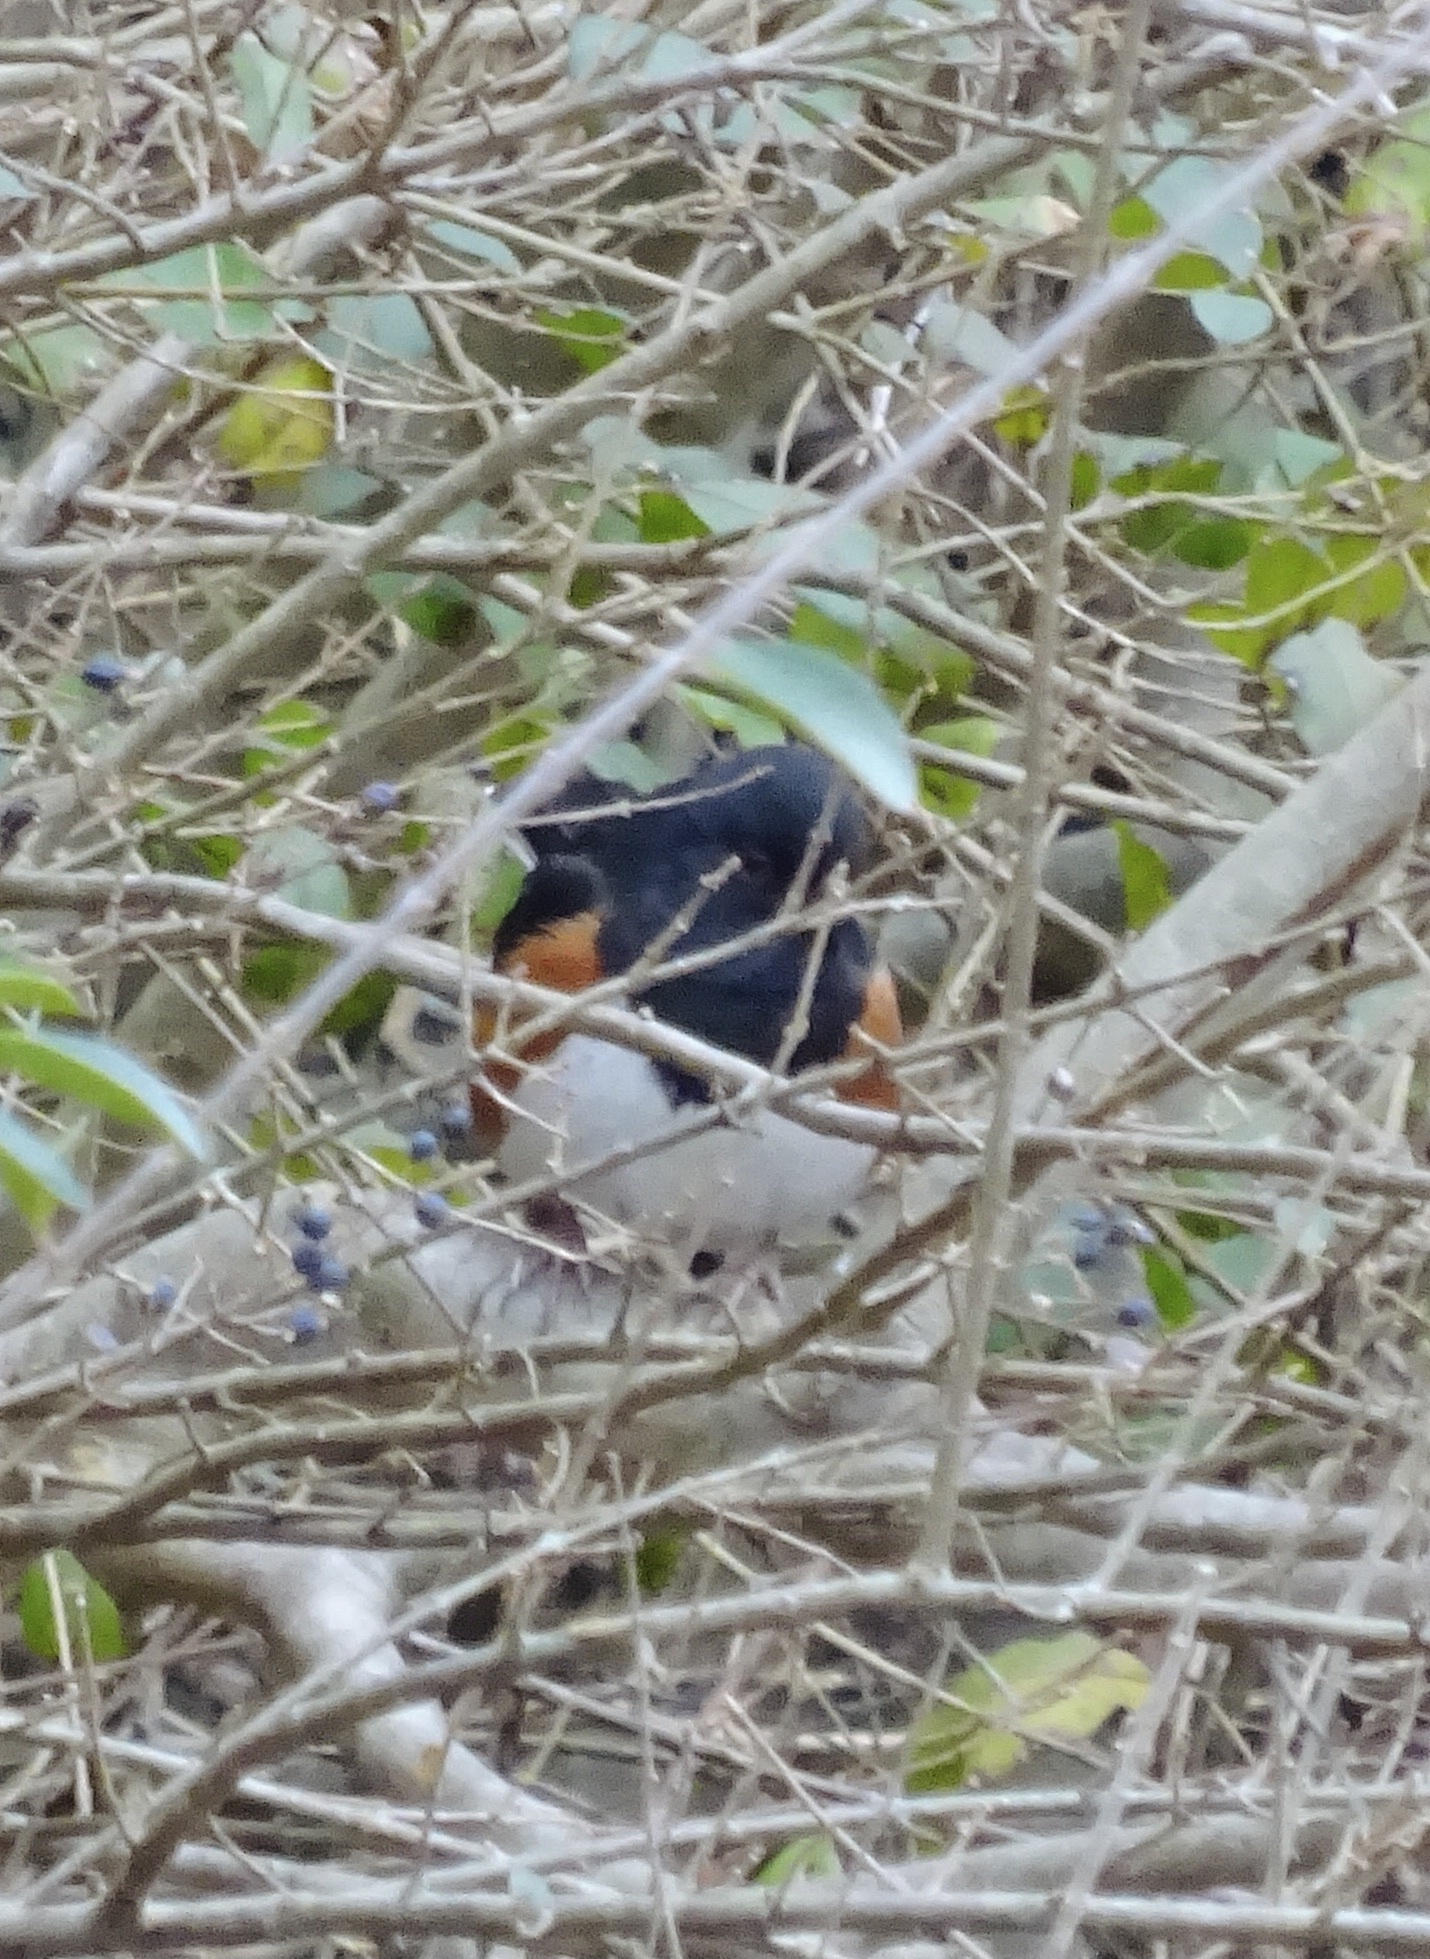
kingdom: Animalia
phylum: Chordata
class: Aves
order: Passeriformes
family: Passerellidae
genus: Pipilo
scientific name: Pipilo erythrophthalmus
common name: Eastern towhee
